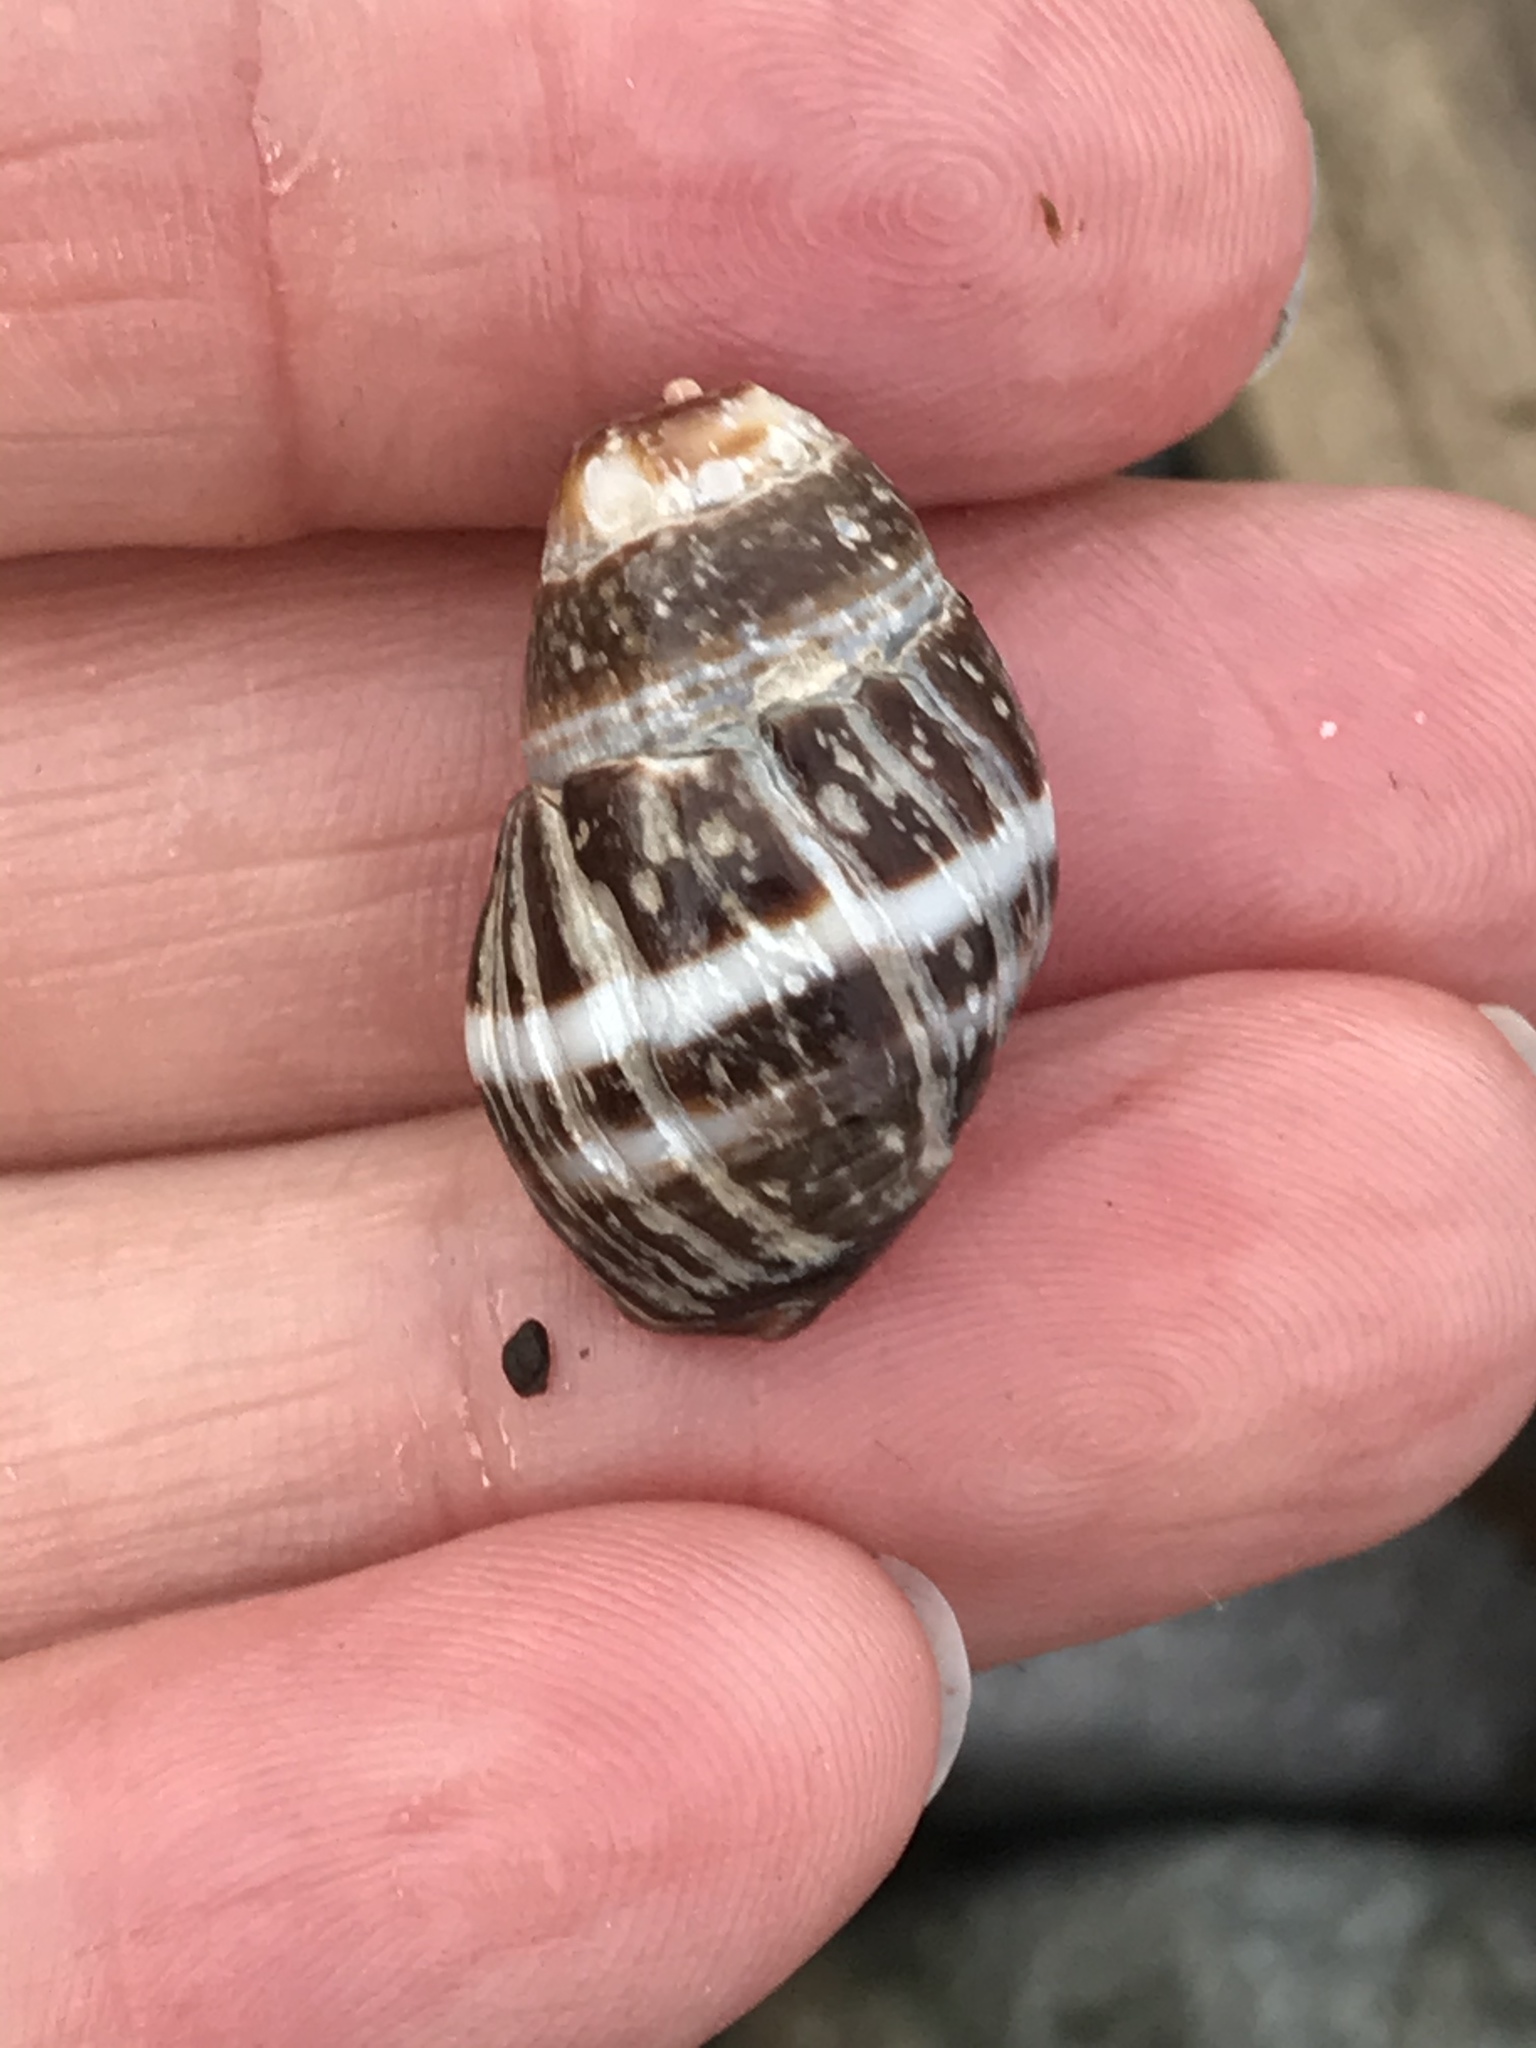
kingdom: Animalia
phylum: Mollusca
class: Gastropoda
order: Neogastropoda
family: Nassariidae
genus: Ilyanassa
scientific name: Ilyanassa obsoleta
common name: Eastern mudsnail
